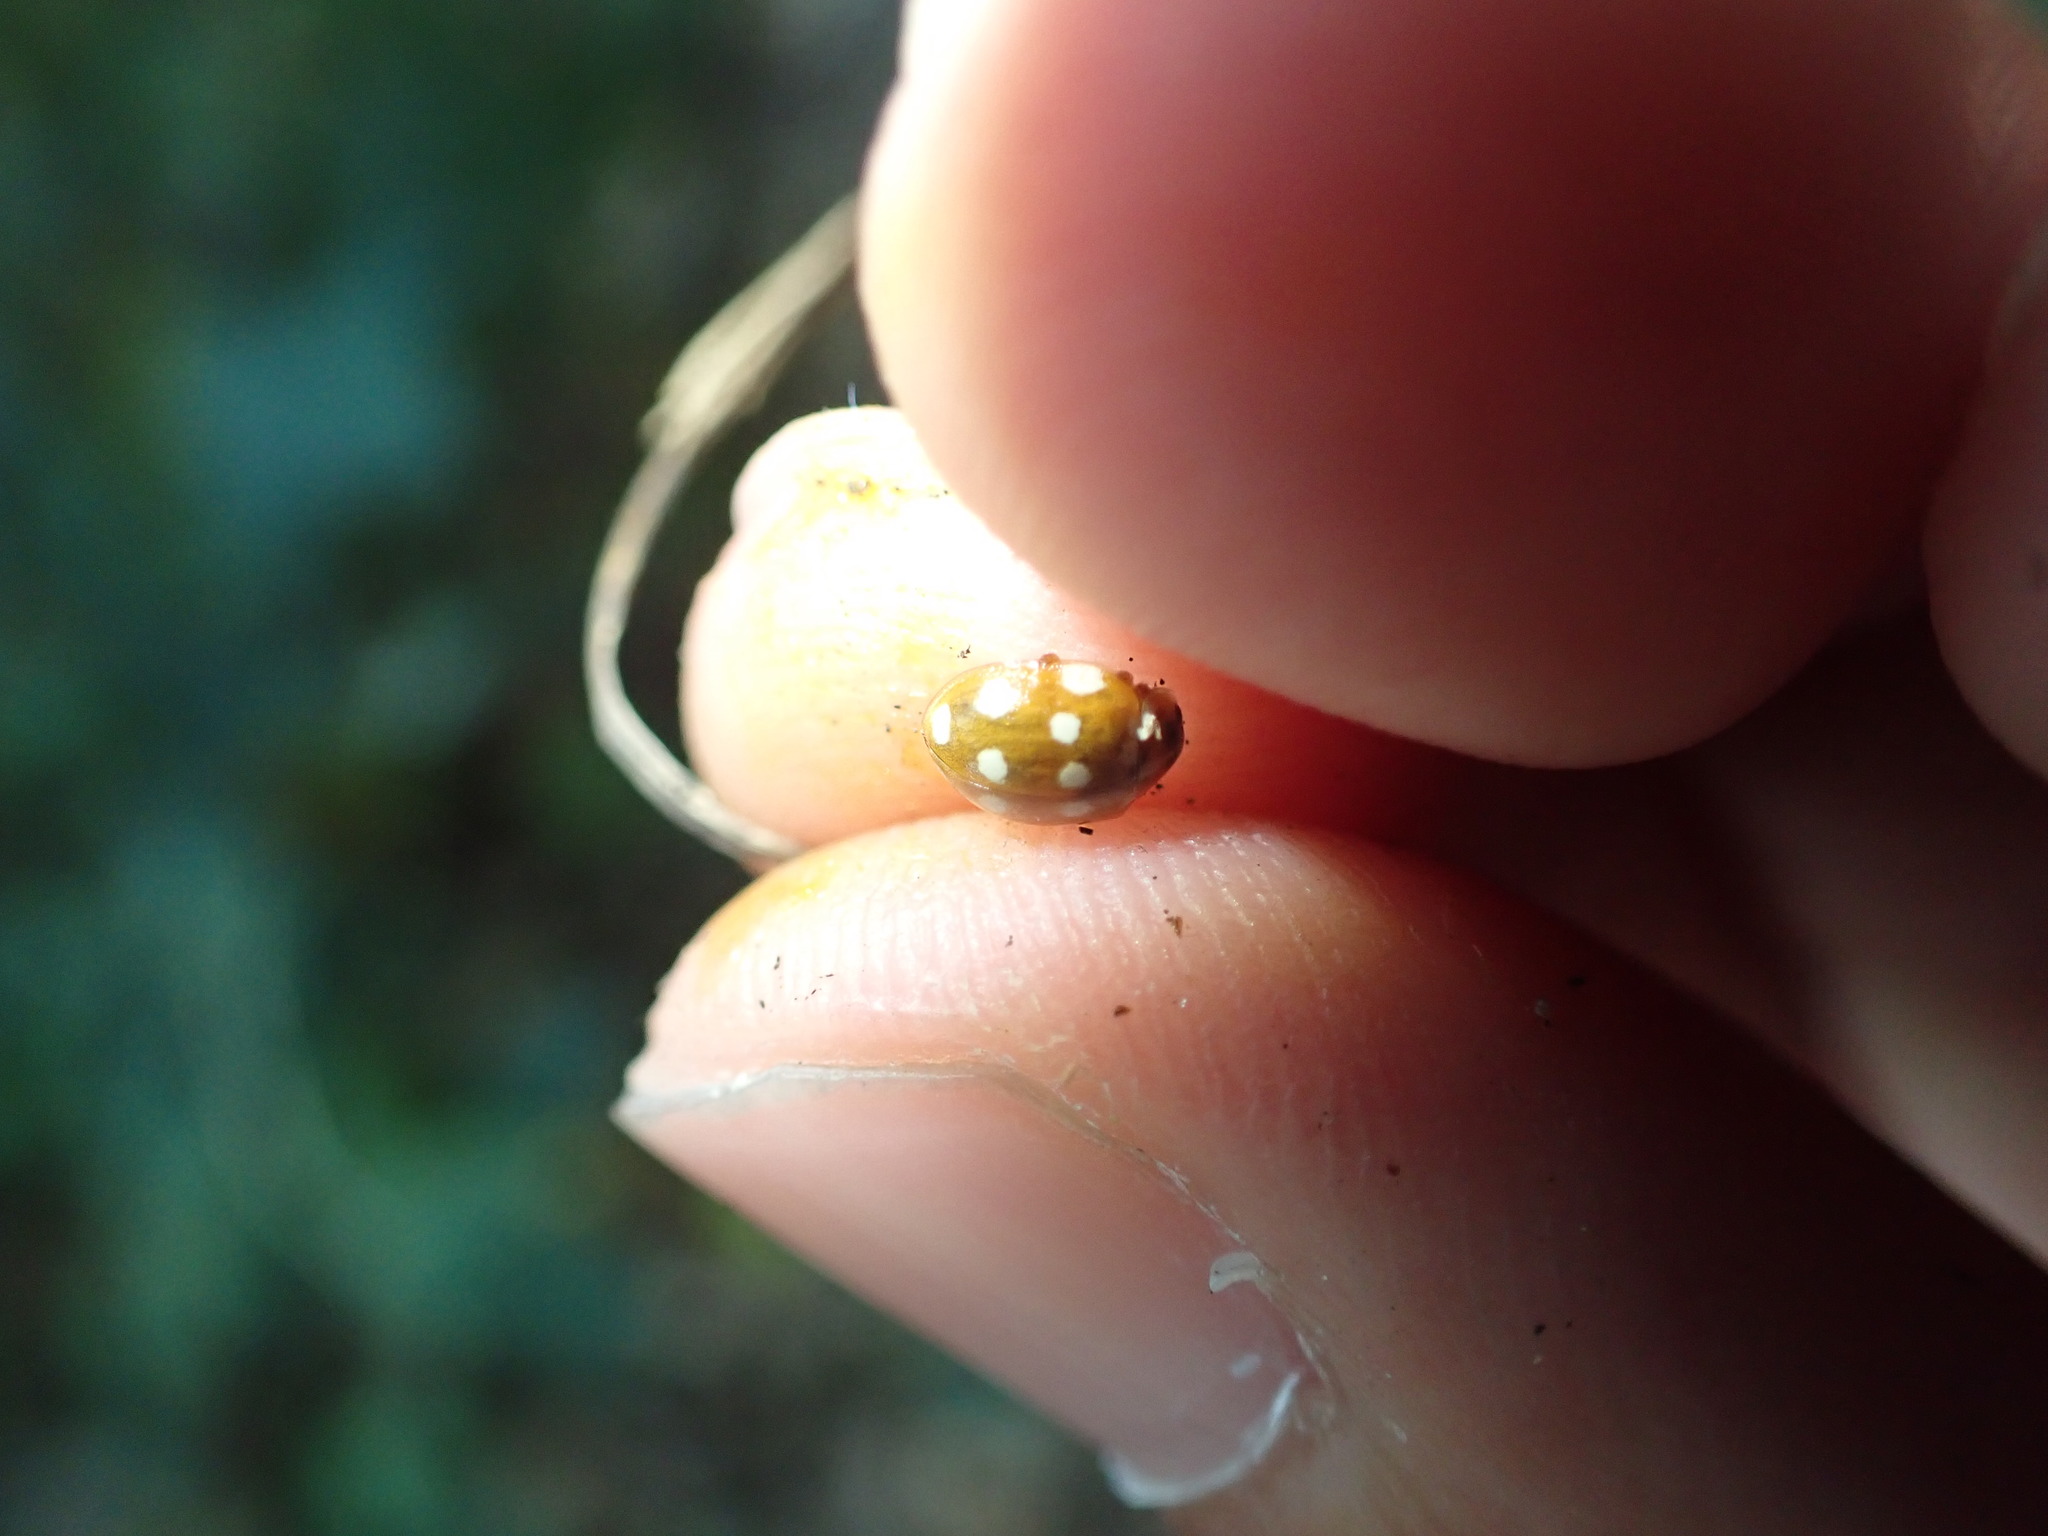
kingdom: Animalia
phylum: Arthropoda
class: Insecta
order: Coleoptera
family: Coccinellidae
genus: Calvia
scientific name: Calvia quatuordecimguttata
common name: Cream-spot ladybird
